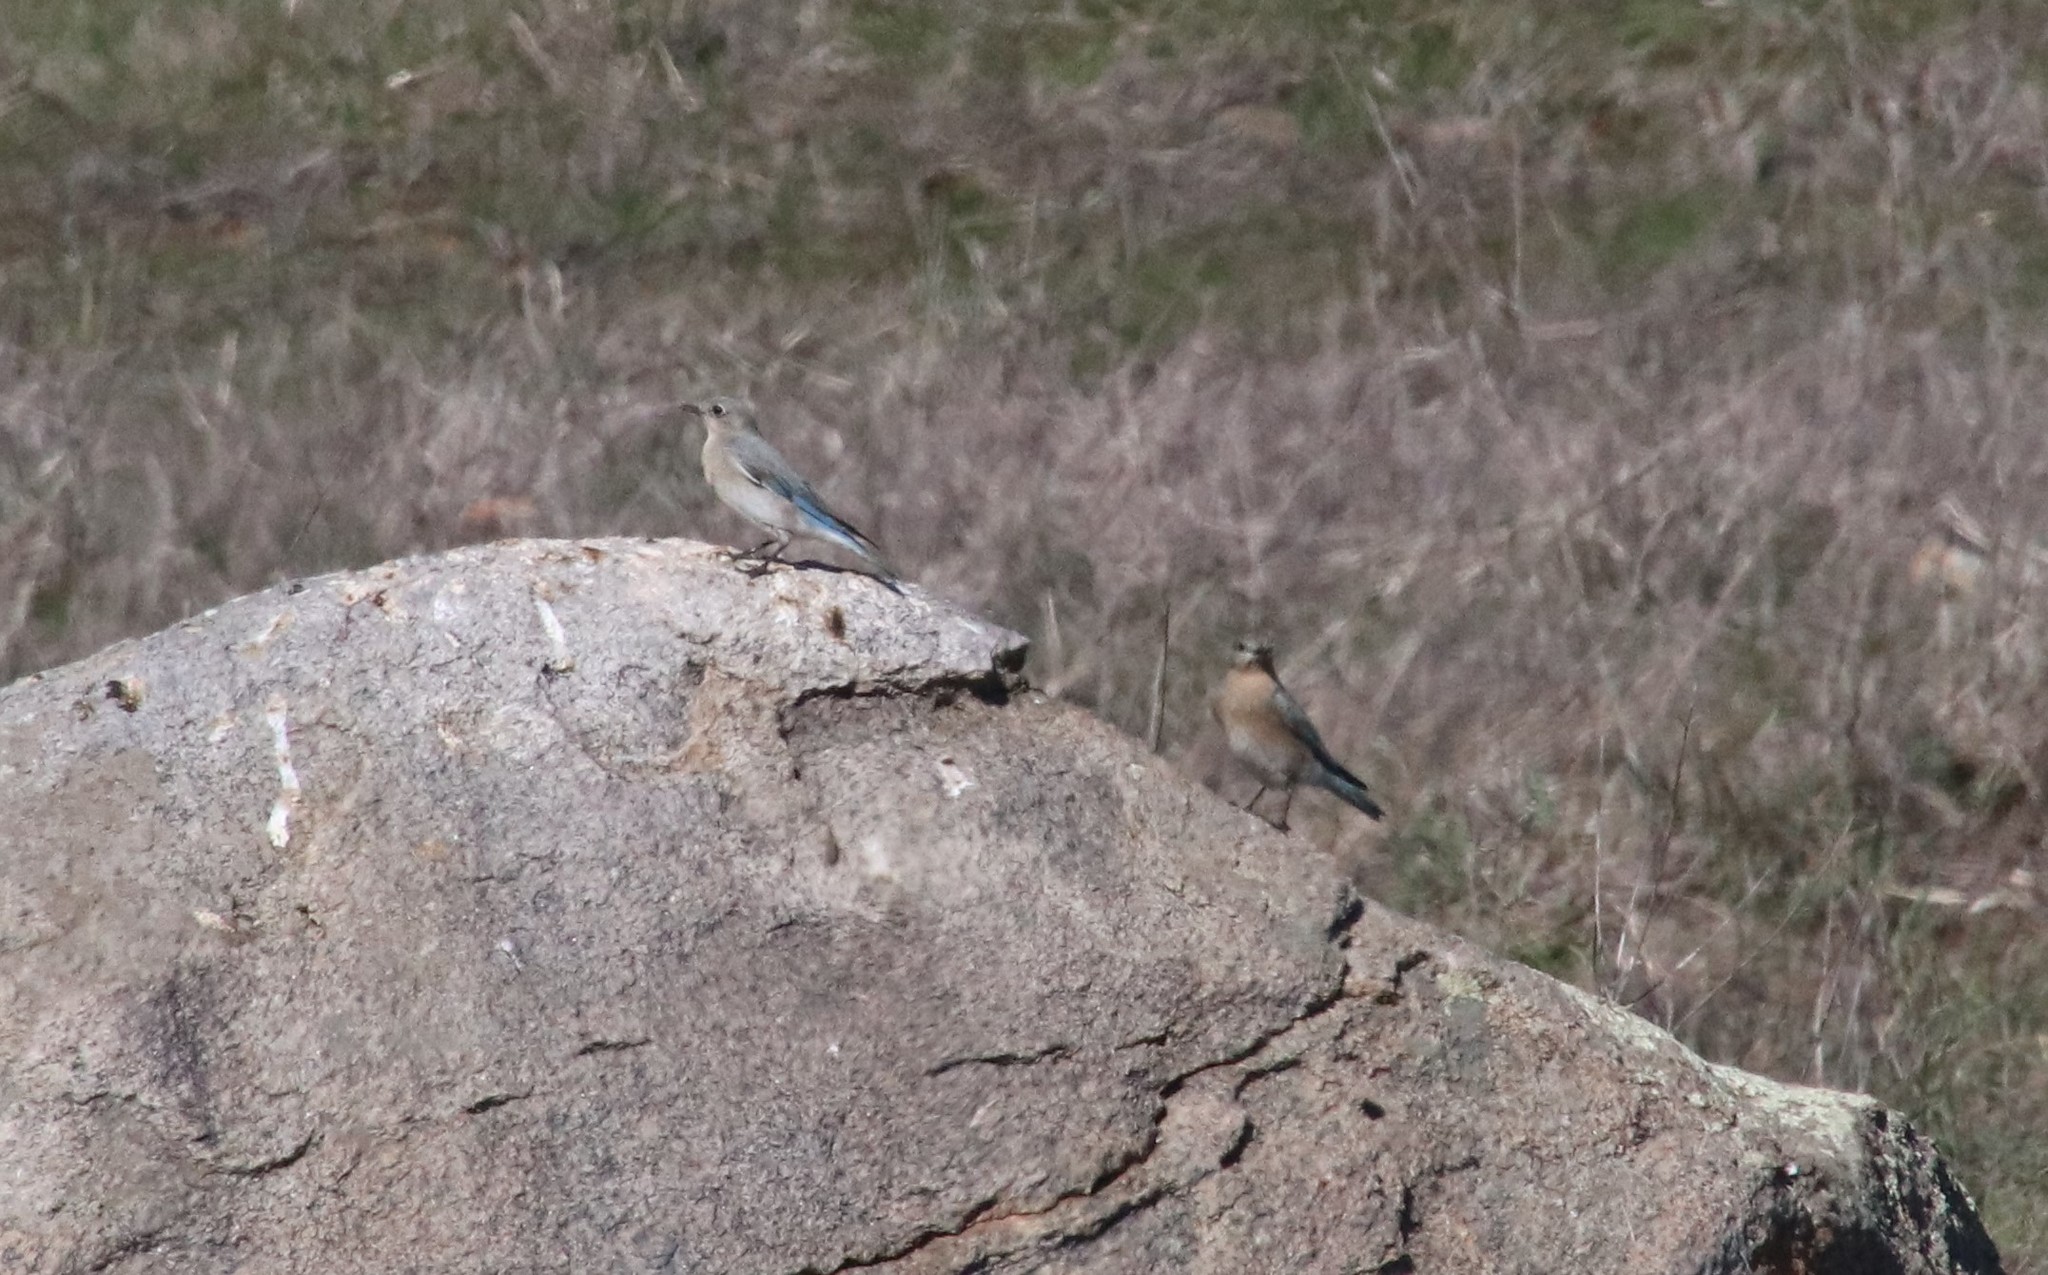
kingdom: Animalia
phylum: Chordata
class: Aves
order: Passeriformes
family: Turdidae
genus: Sialia
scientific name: Sialia currucoides
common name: Mountain bluebird
